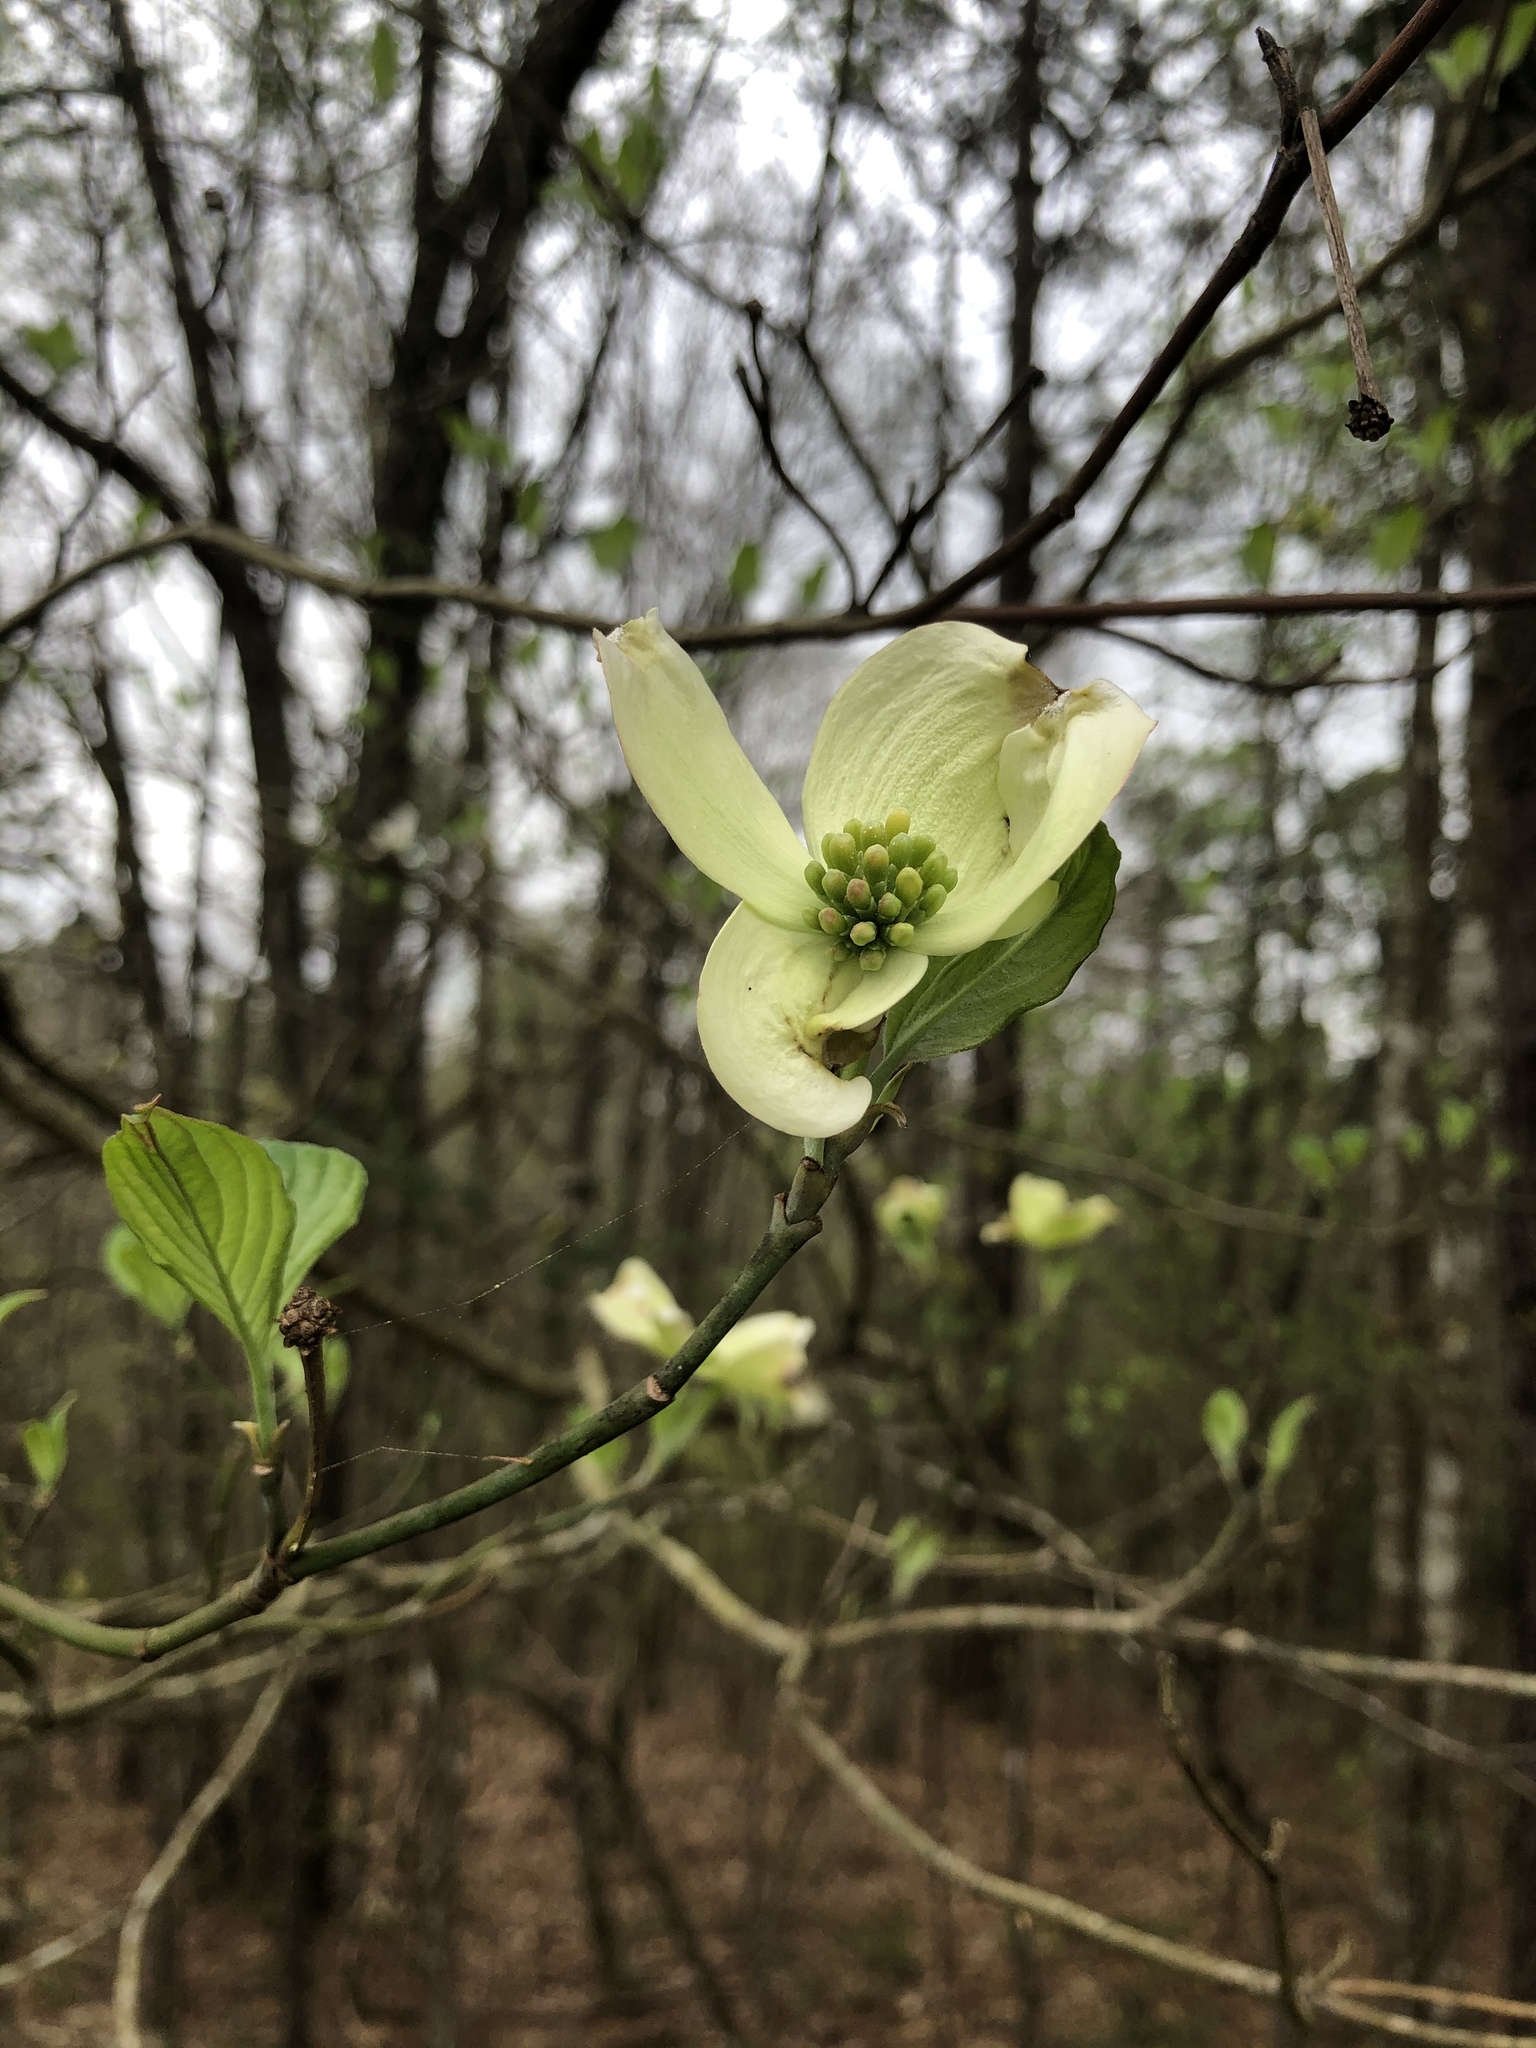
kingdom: Plantae
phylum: Tracheophyta
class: Magnoliopsida
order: Cornales
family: Cornaceae
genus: Cornus
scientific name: Cornus florida
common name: Flowering dogwood
